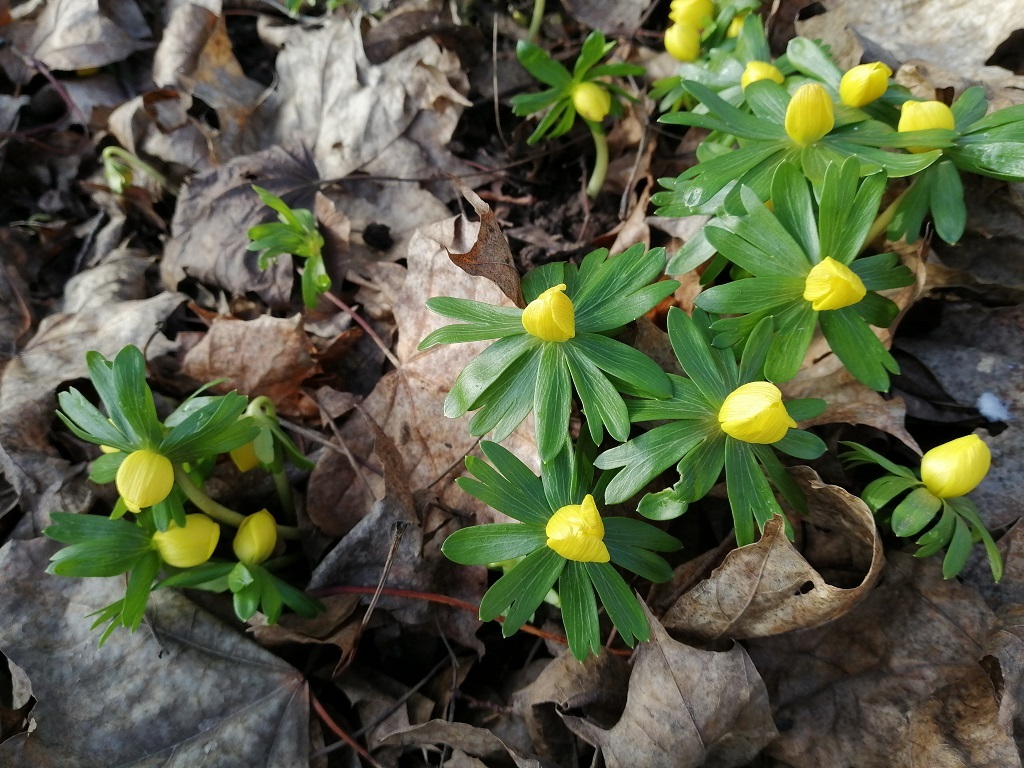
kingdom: Plantae
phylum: Tracheophyta
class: Magnoliopsida
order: Ranunculales
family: Ranunculaceae
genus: Eranthis
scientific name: Eranthis hyemalis
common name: Winter aconite
